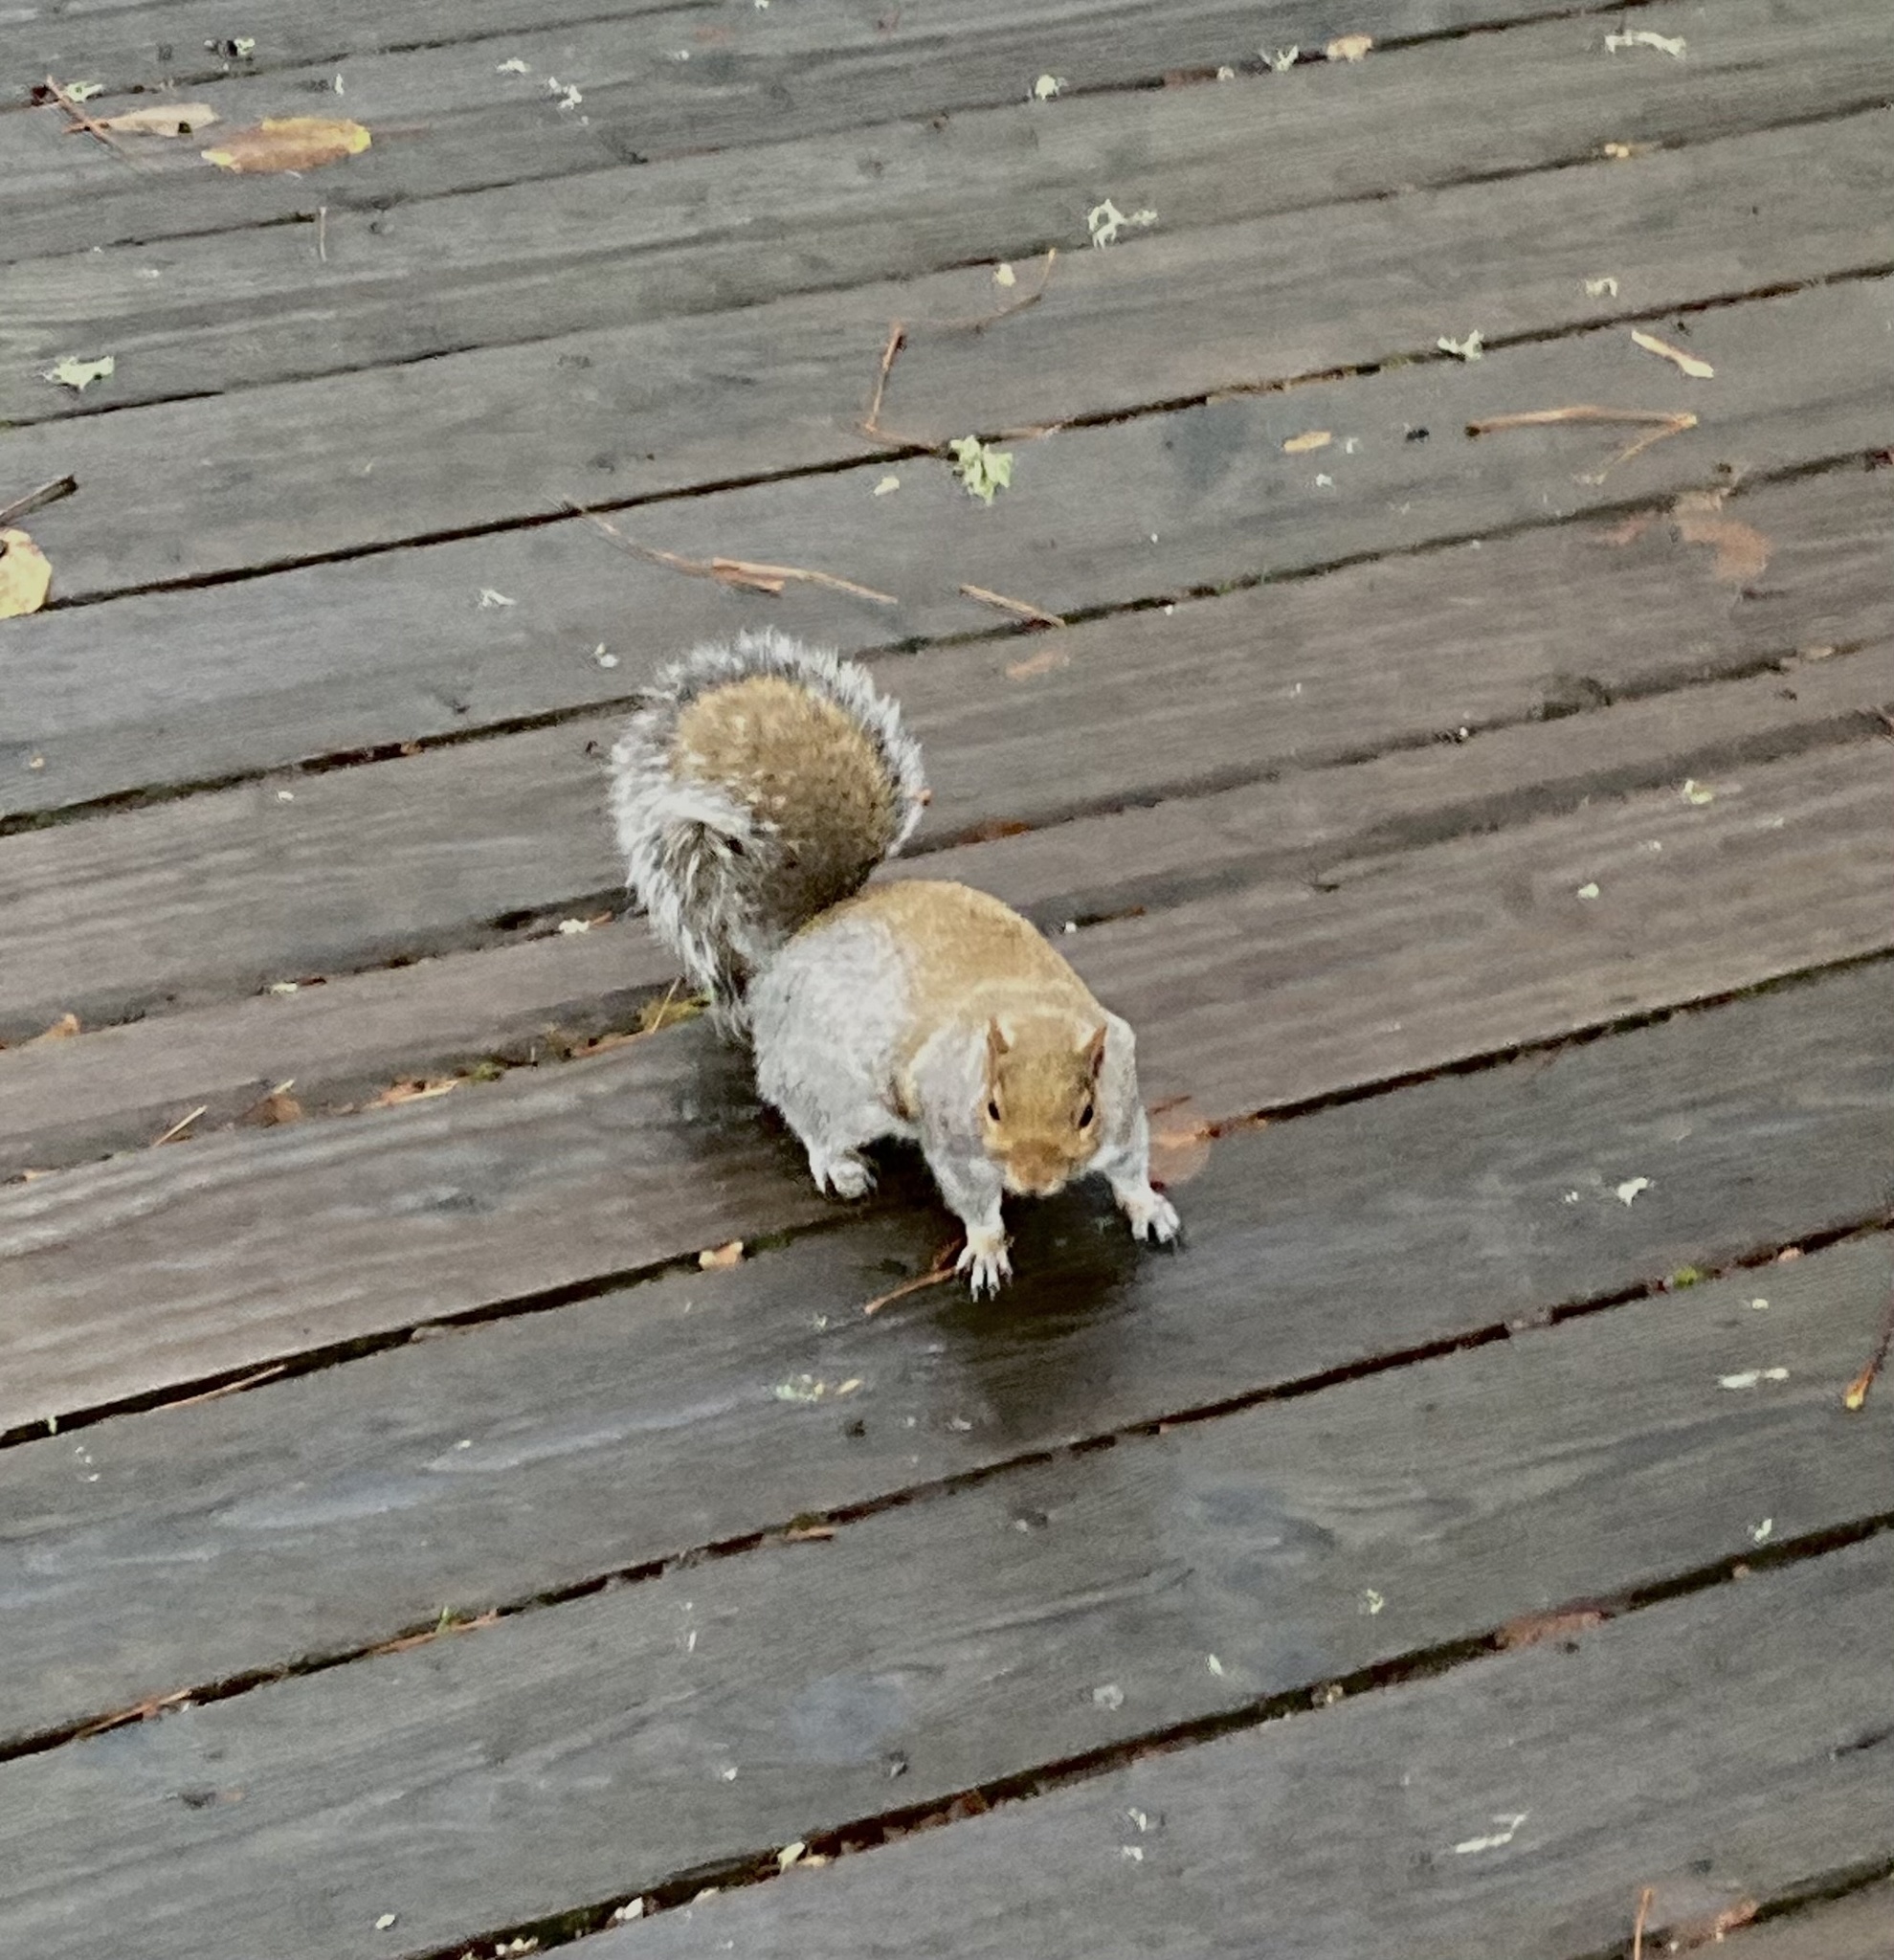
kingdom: Animalia
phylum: Chordata
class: Mammalia
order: Rodentia
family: Sciuridae
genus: Sciurus
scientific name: Sciurus carolinensis
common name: Eastern gray squirrel
